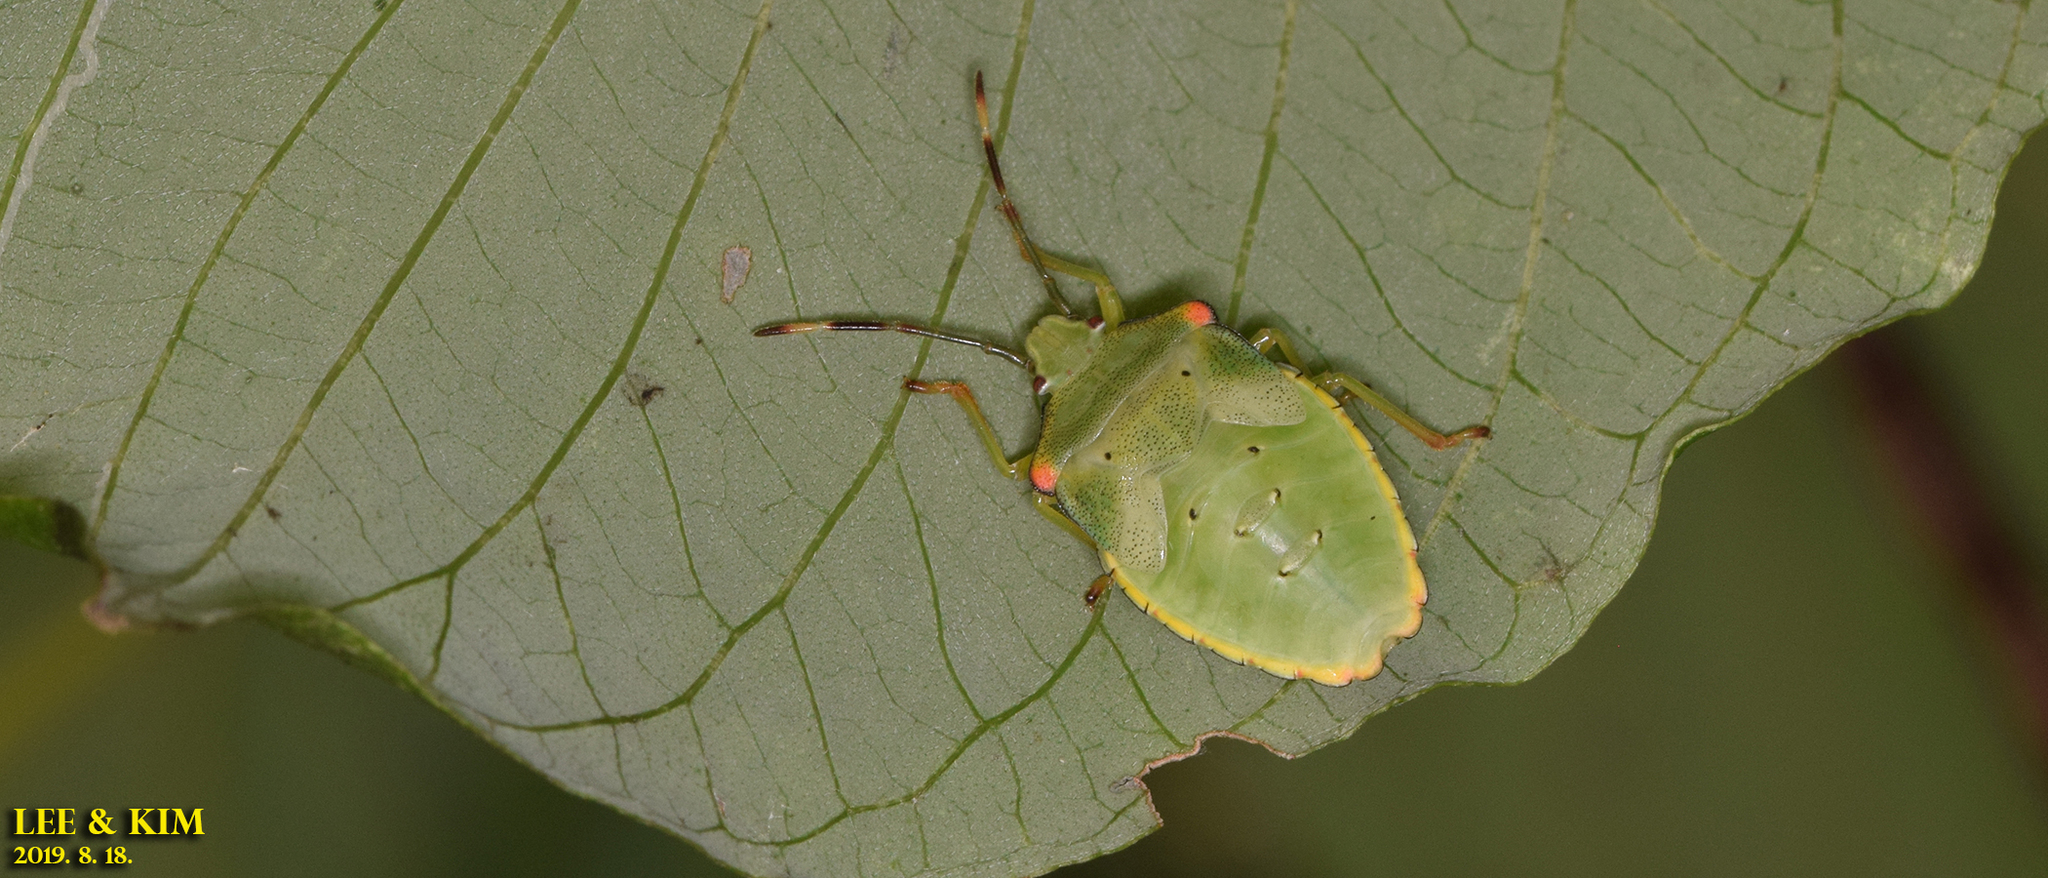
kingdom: Animalia
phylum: Arthropoda
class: Insecta
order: Hemiptera
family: Acanthosomatidae
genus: Acanthosoma
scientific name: Acanthosoma labiduroides
